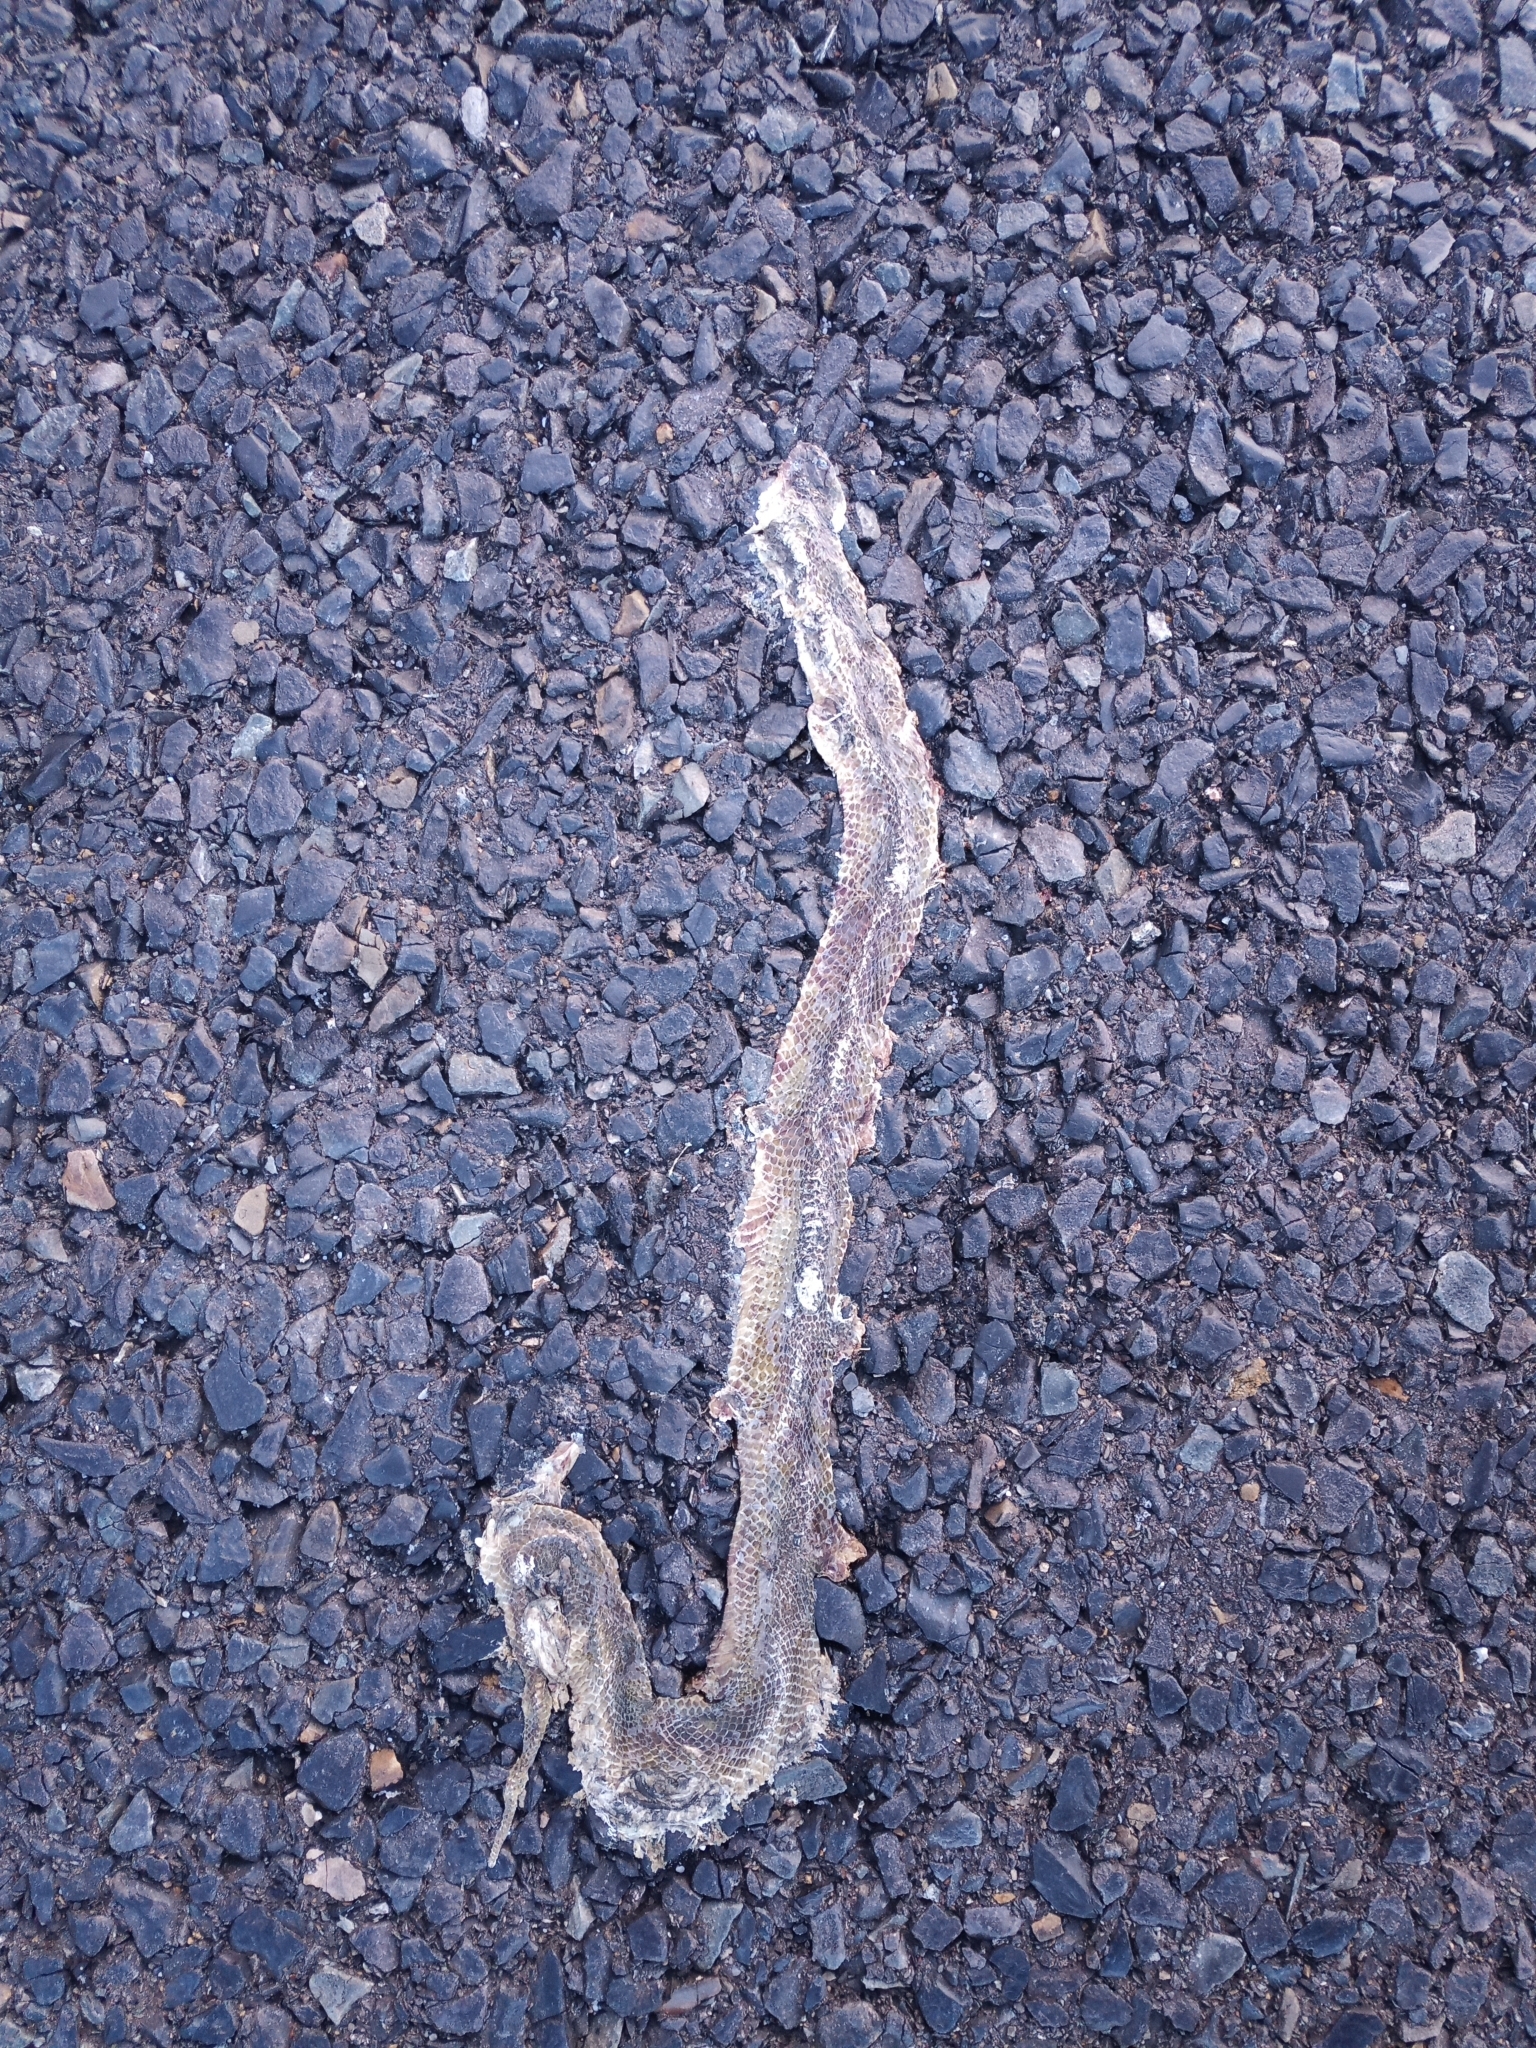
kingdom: Animalia
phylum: Chordata
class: Squamata
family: Colubridae
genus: Crotaphopeltis
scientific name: Crotaphopeltis hotamboeia
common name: Red-lipped snake
